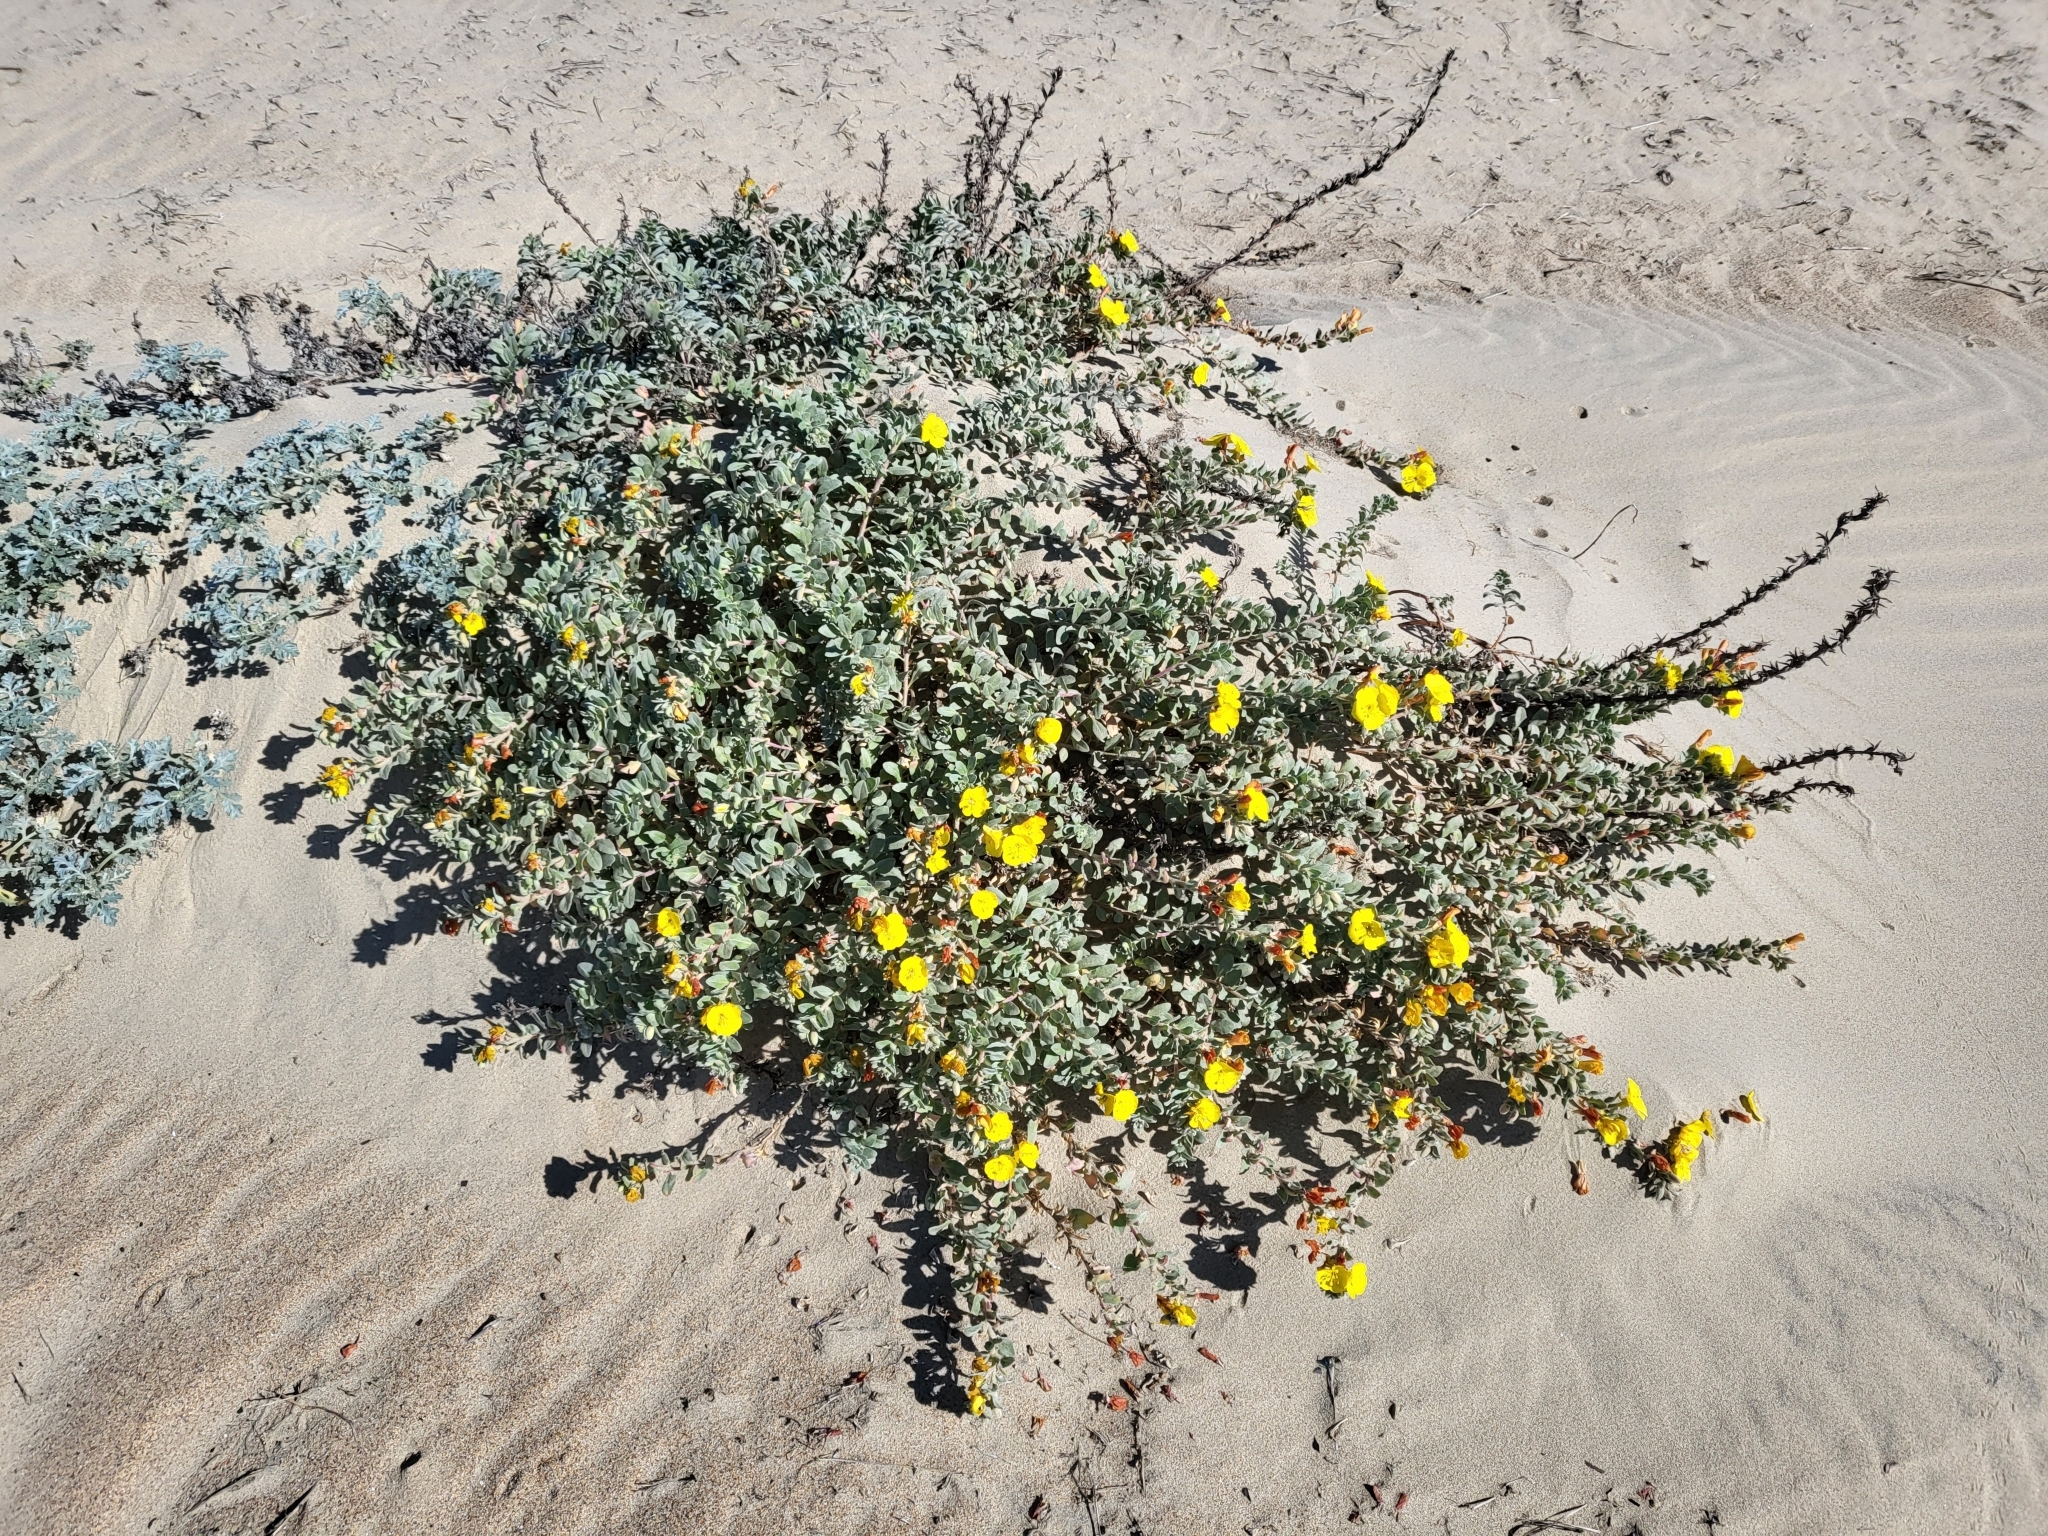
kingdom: Plantae
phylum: Tracheophyta
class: Magnoliopsida
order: Myrtales
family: Onagraceae
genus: Camissoniopsis
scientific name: Camissoniopsis cheiranthifolia
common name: Beach suncup
